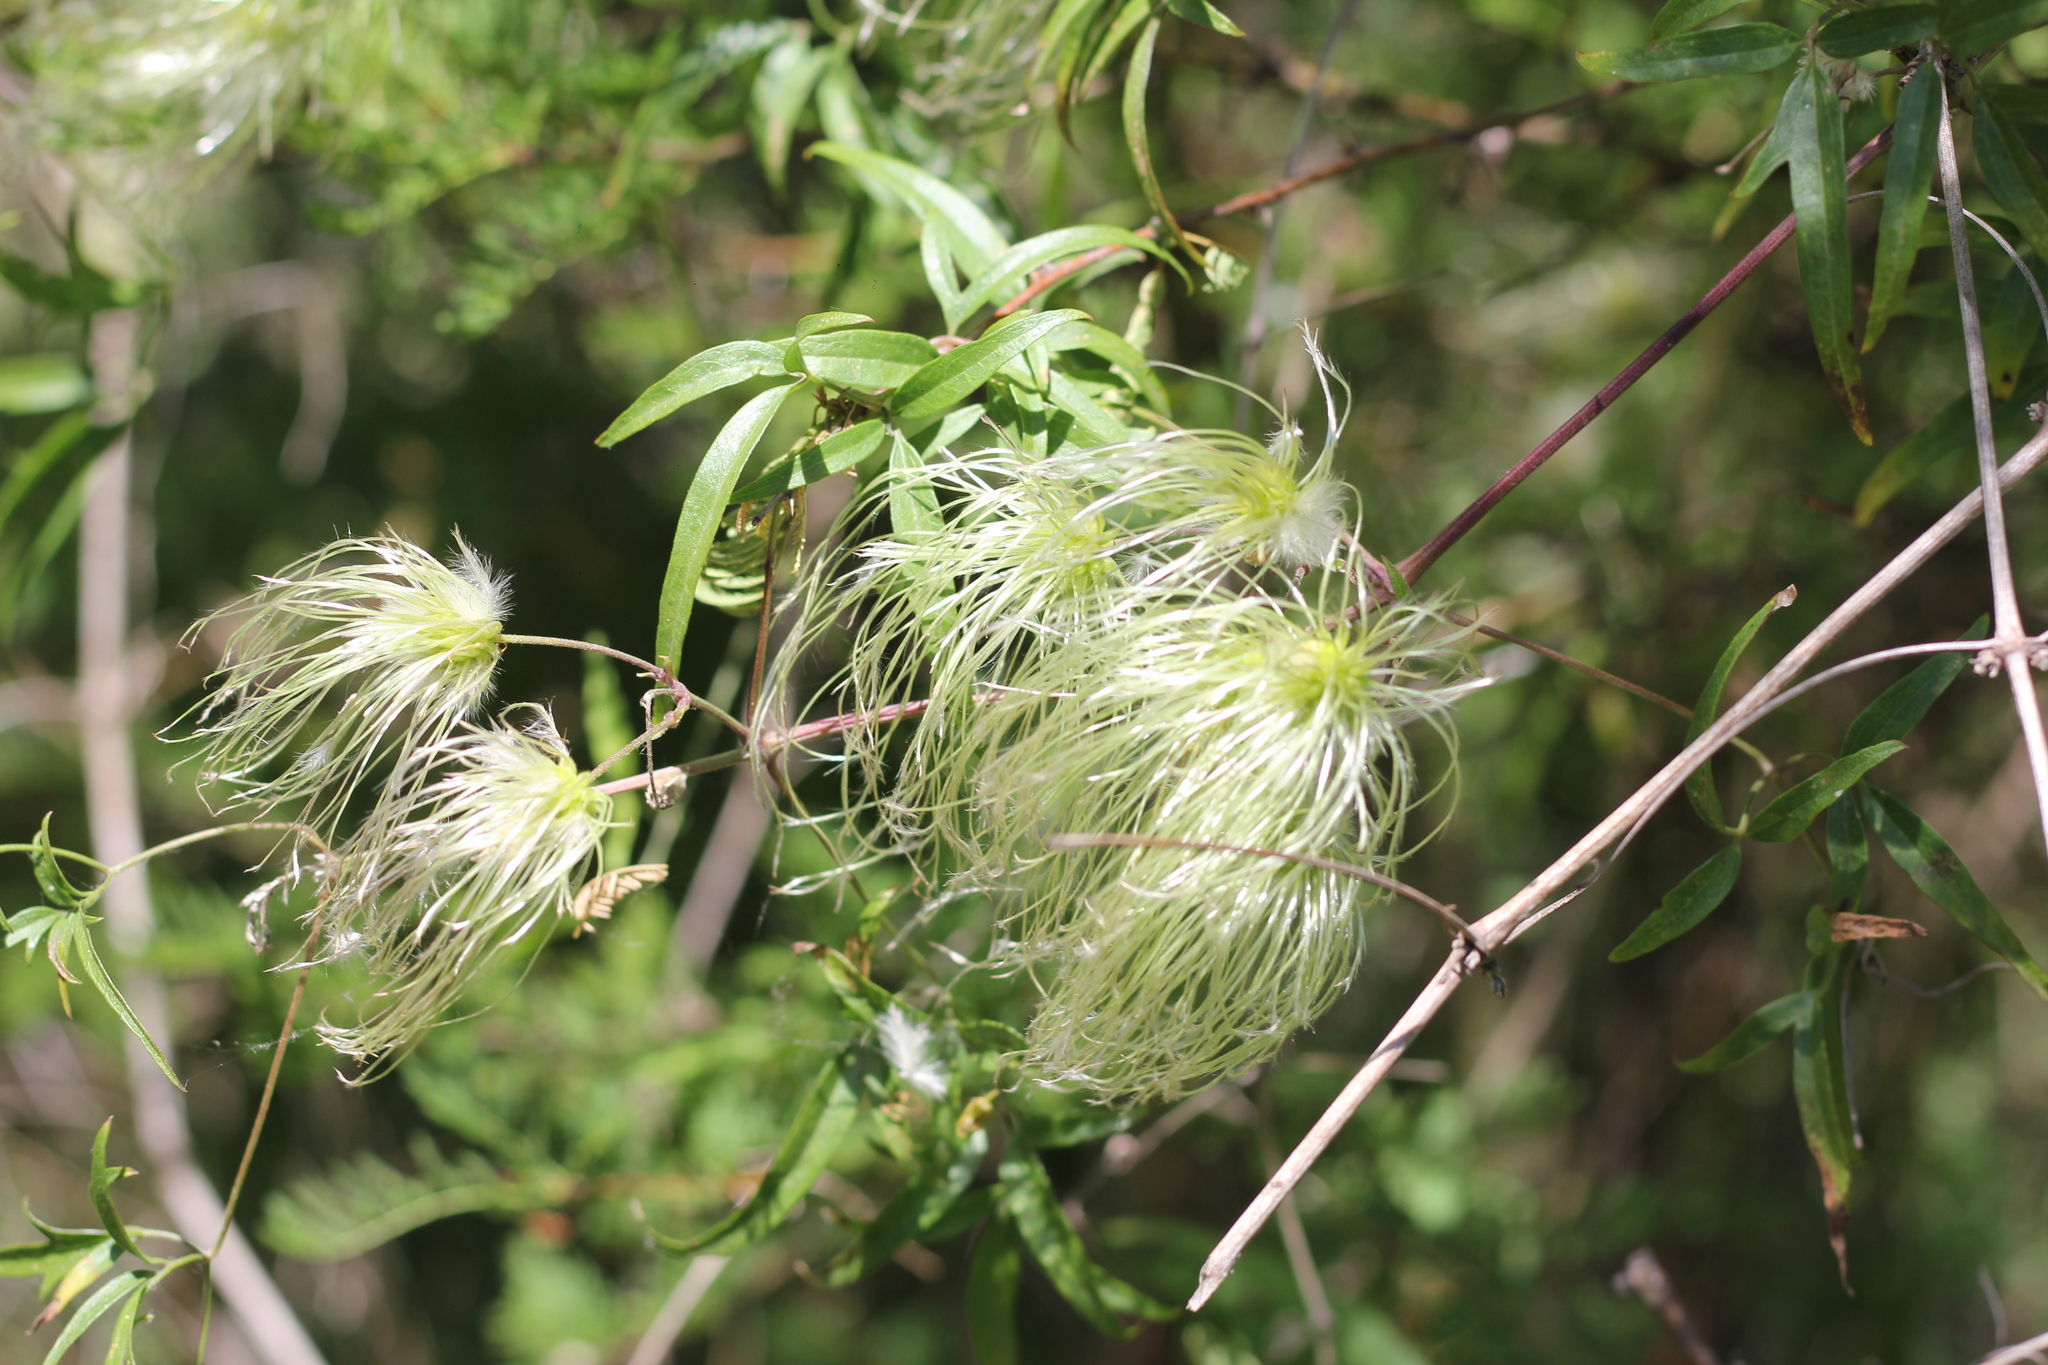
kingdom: Plantae
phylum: Tracheophyta
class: Magnoliopsida
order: Ranunculales
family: Ranunculaceae
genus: Clematis
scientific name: Clematis montevidensis
